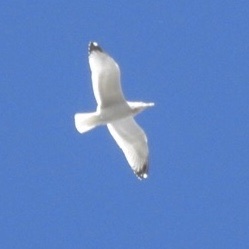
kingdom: Animalia
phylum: Chordata
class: Aves
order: Charadriiformes
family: Laridae
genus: Larus
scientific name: Larus californicus
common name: California gull
